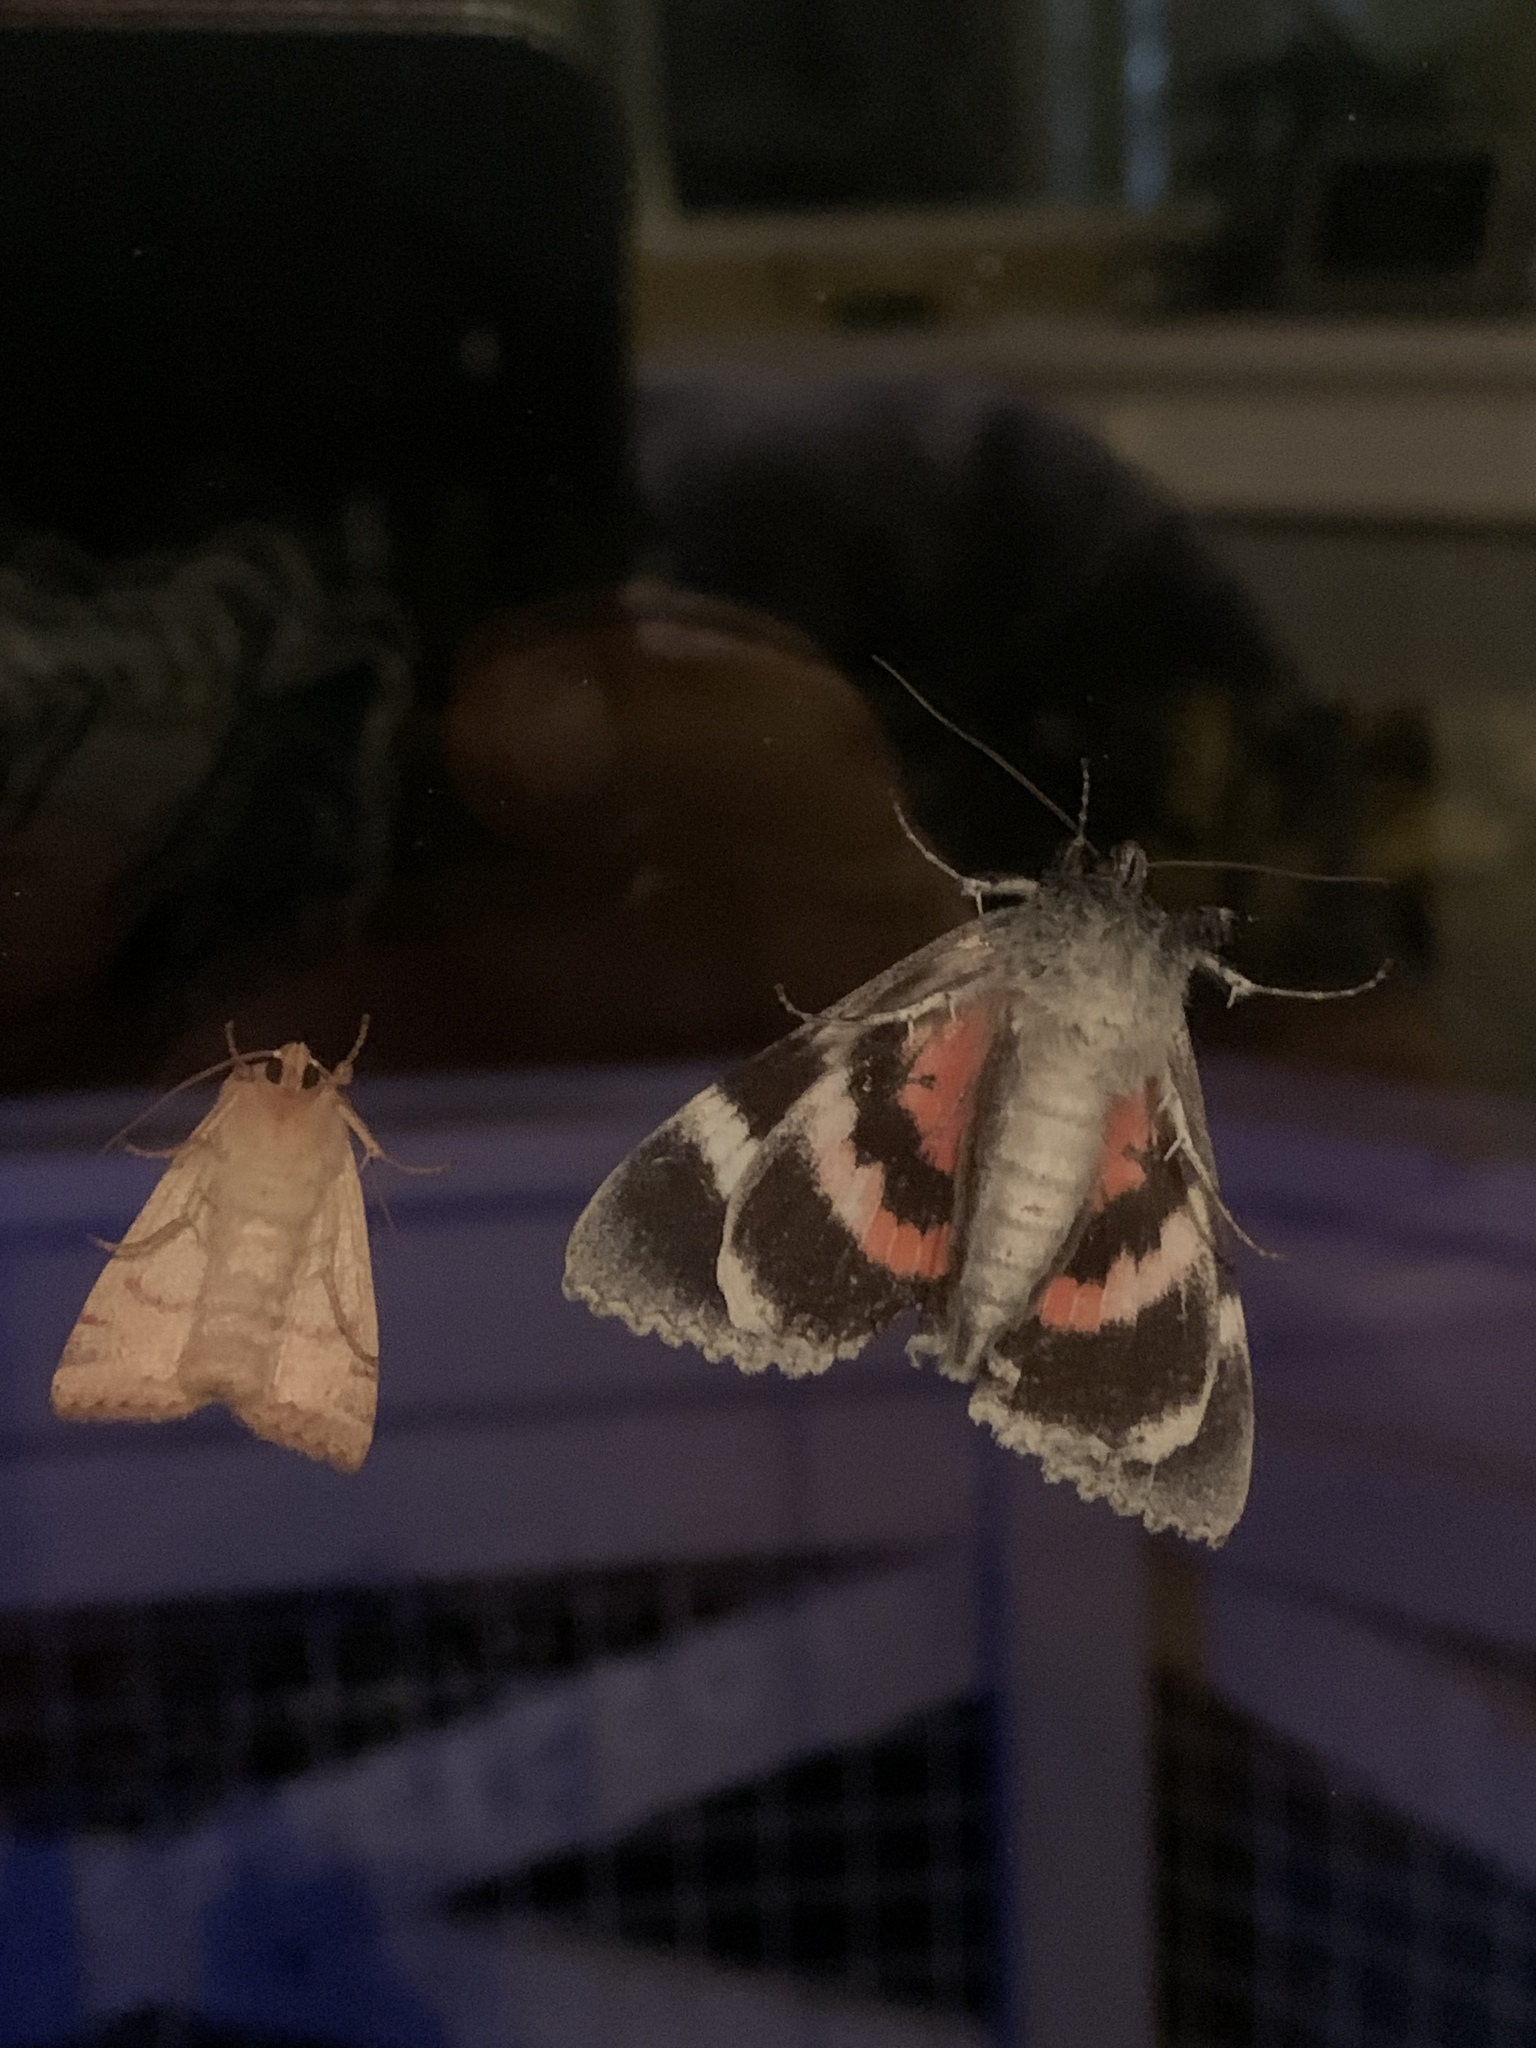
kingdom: Animalia
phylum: Arthropoda
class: Insecta
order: Lepidoptera
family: Erebidae
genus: Catocala
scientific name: Catocala semirelicta
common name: Semirelict underwing moth
